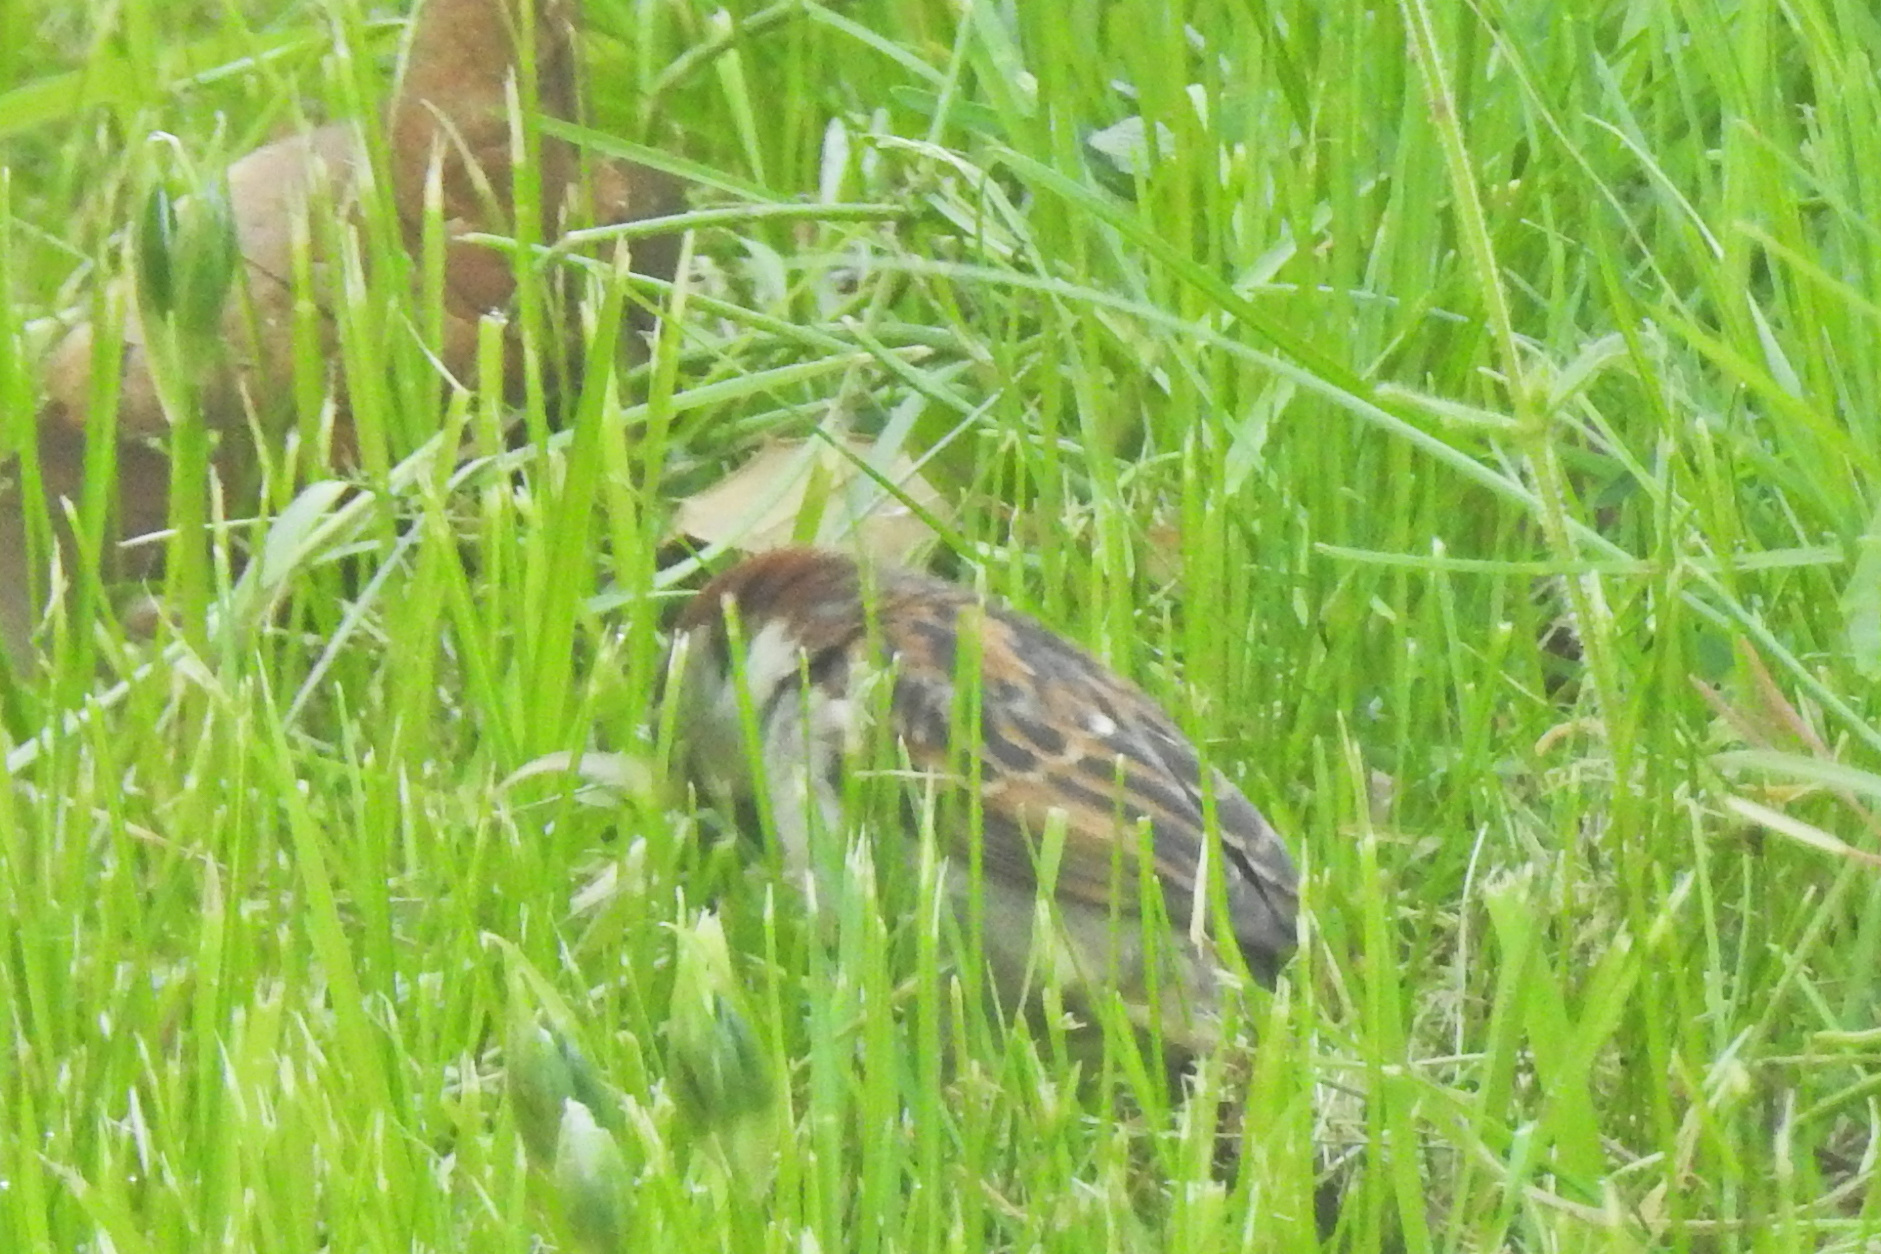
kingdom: Animalia
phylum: Chordata
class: Aves
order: Passeriformes
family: Passeridae
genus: Passer
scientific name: Passer domesticus
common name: House sparrow
